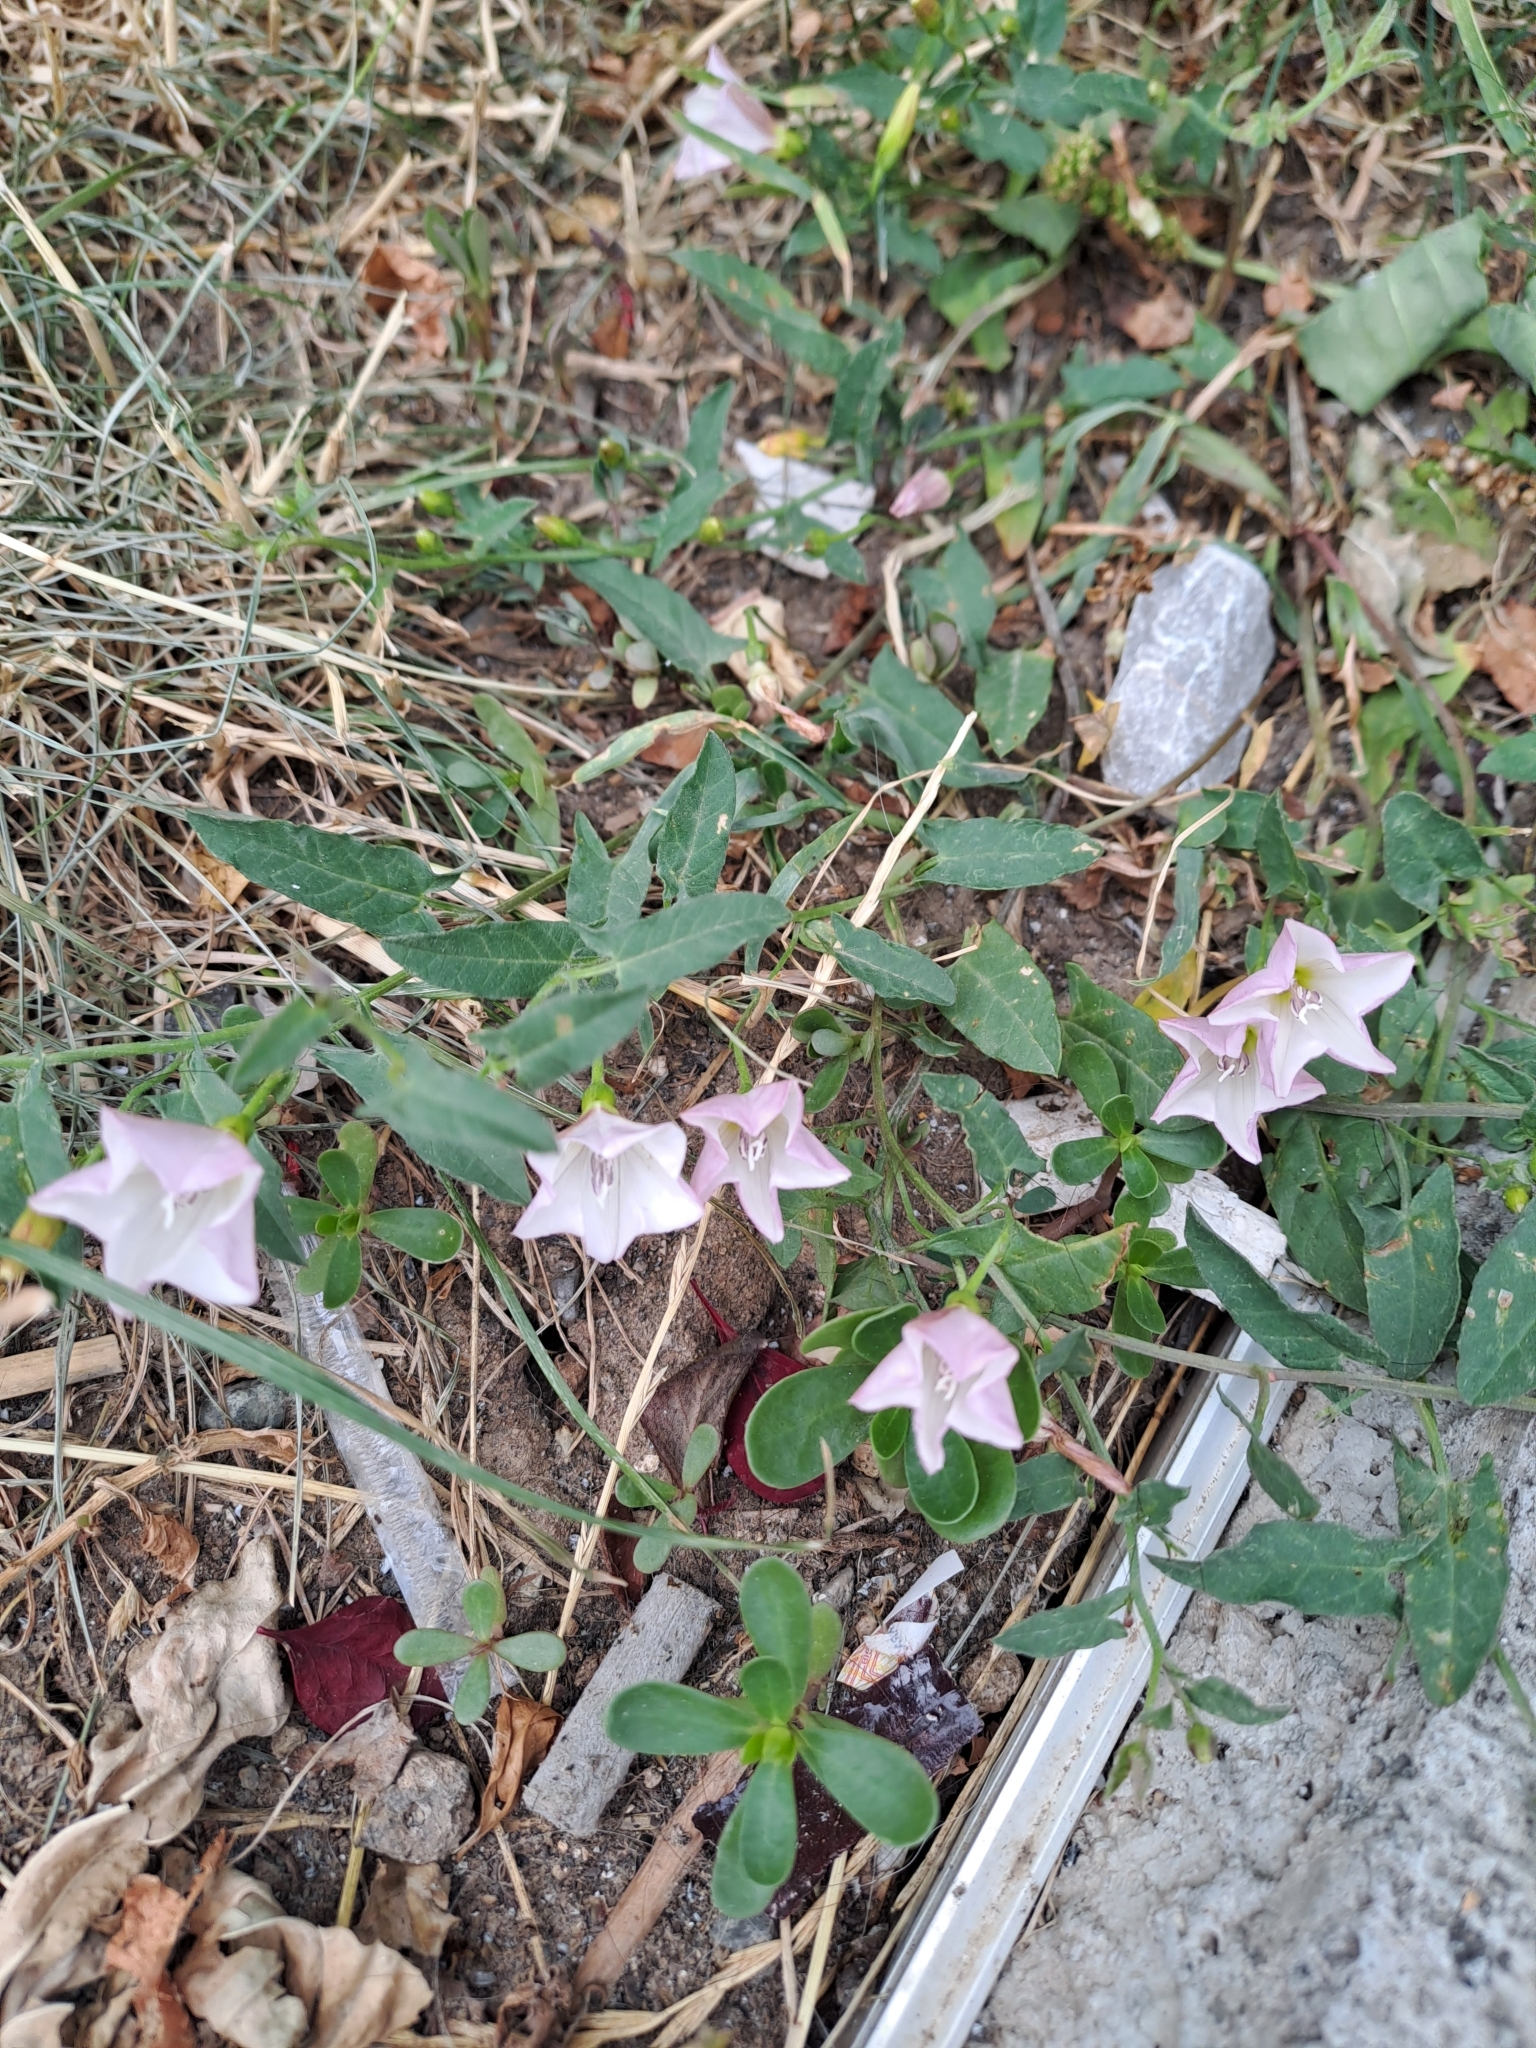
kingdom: Plantae
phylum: Tracheophyta
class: Magnoliopsida
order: Solanales
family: Convolvulaceae
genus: Convolvulus
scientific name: Convolvulus arvensis
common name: Field bindweed
